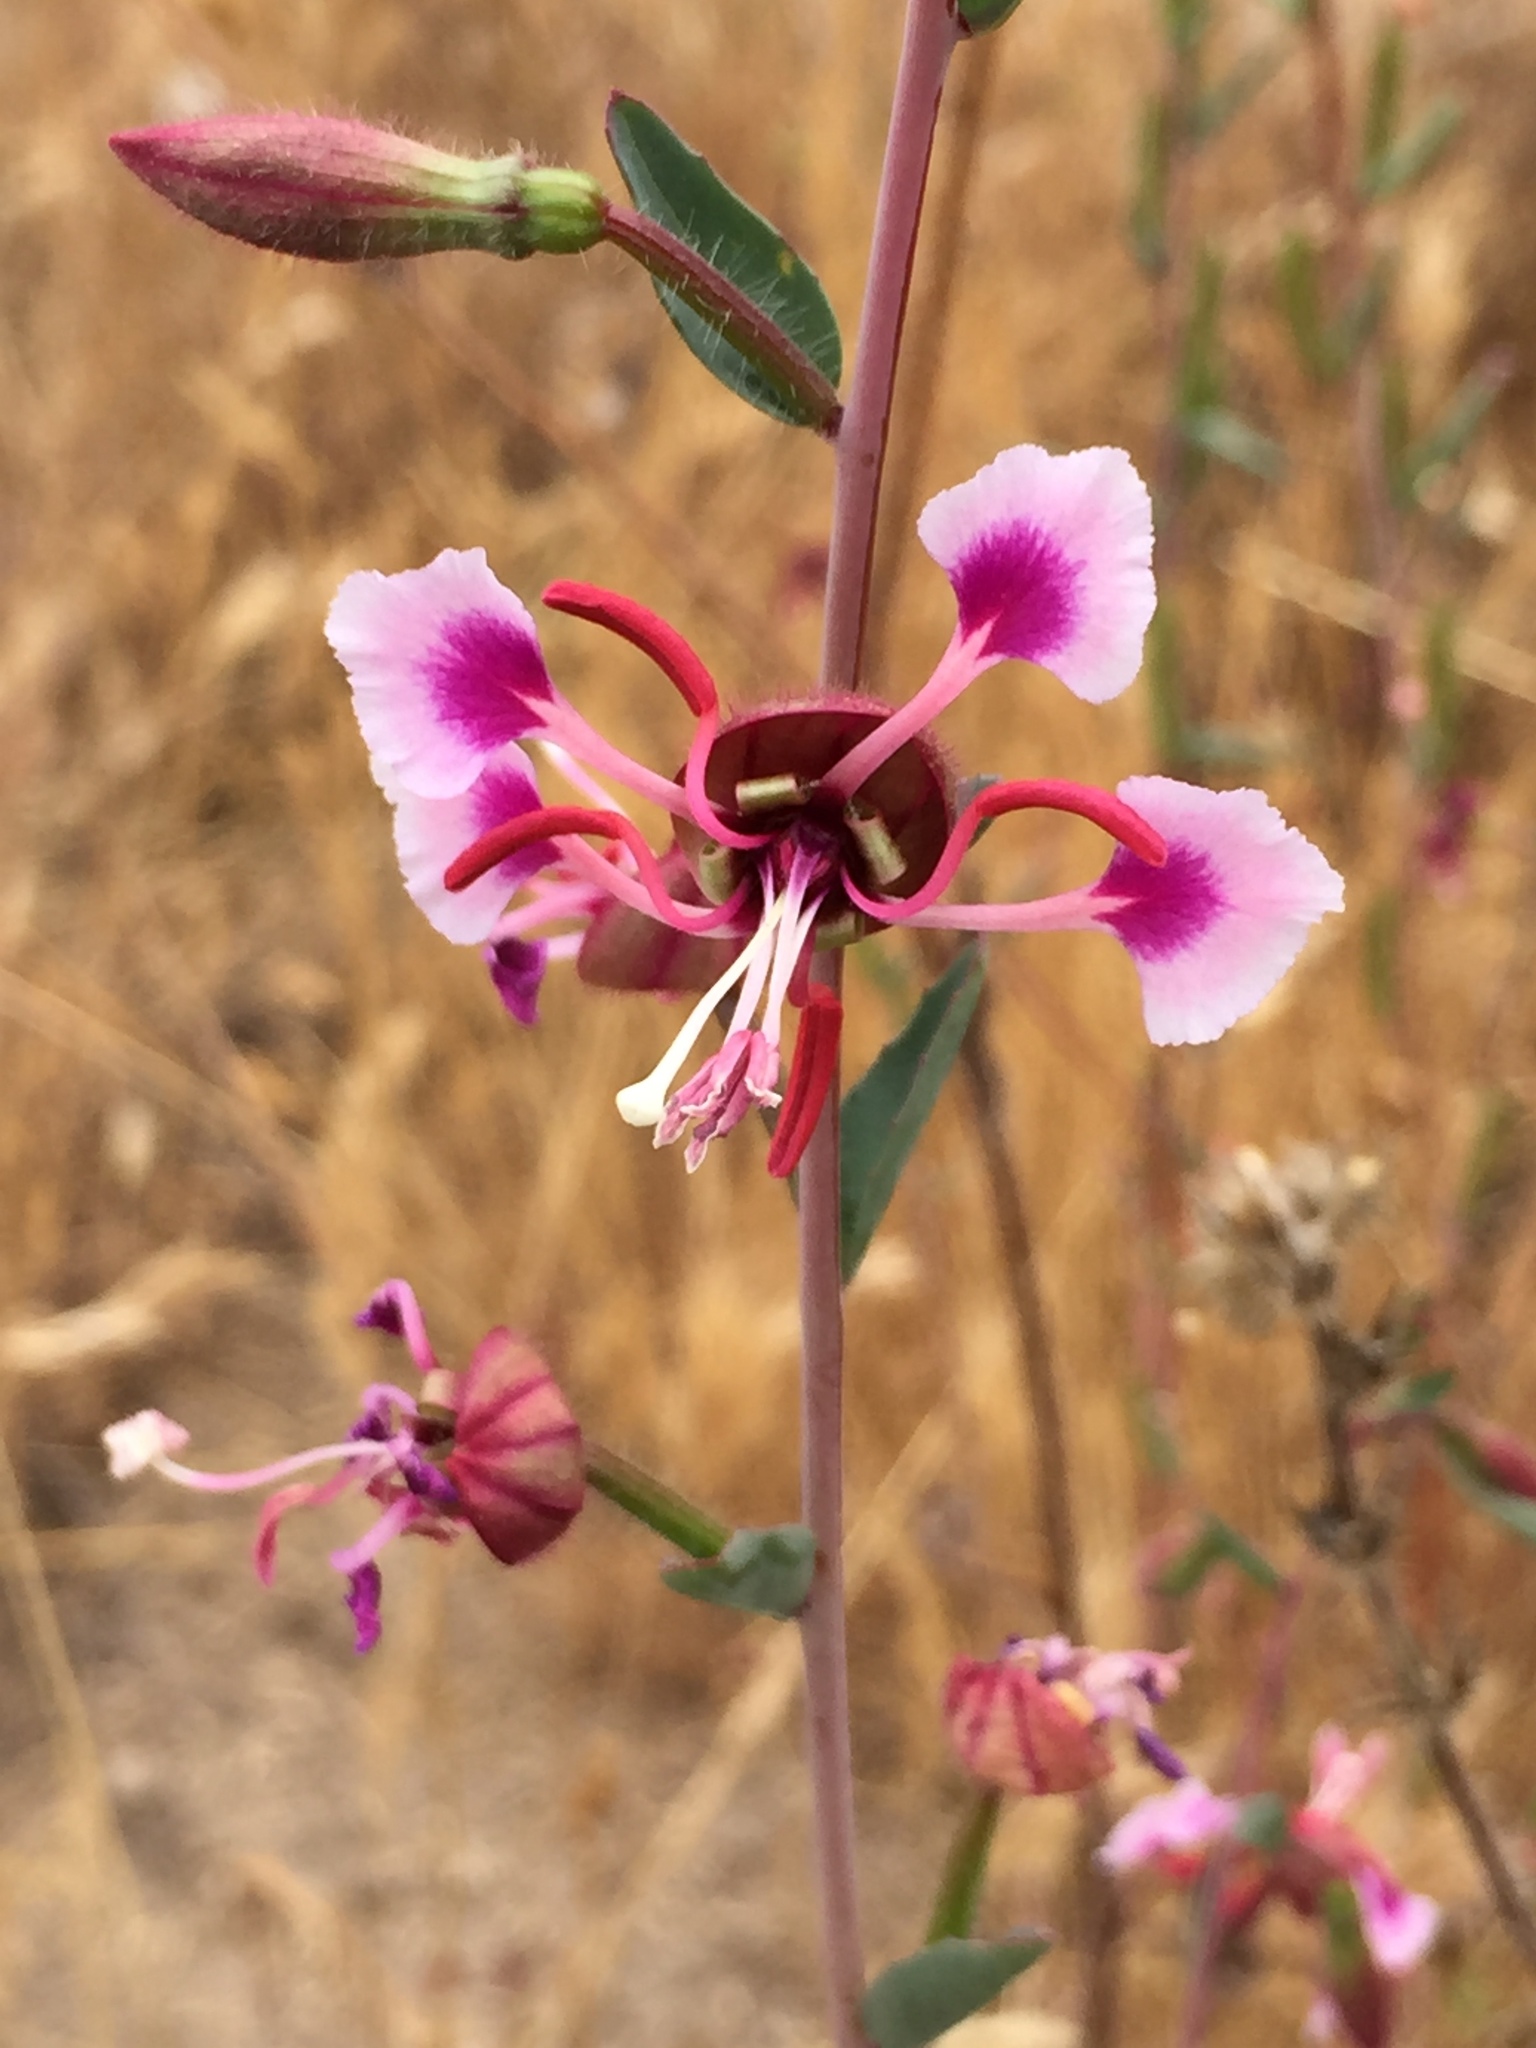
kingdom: Plantae
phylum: Tracheophyta
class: Magnoliopsida
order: Myrtales
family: Onagraceae
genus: Clarkia
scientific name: Clarkia unguiculata
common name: Clarkia
